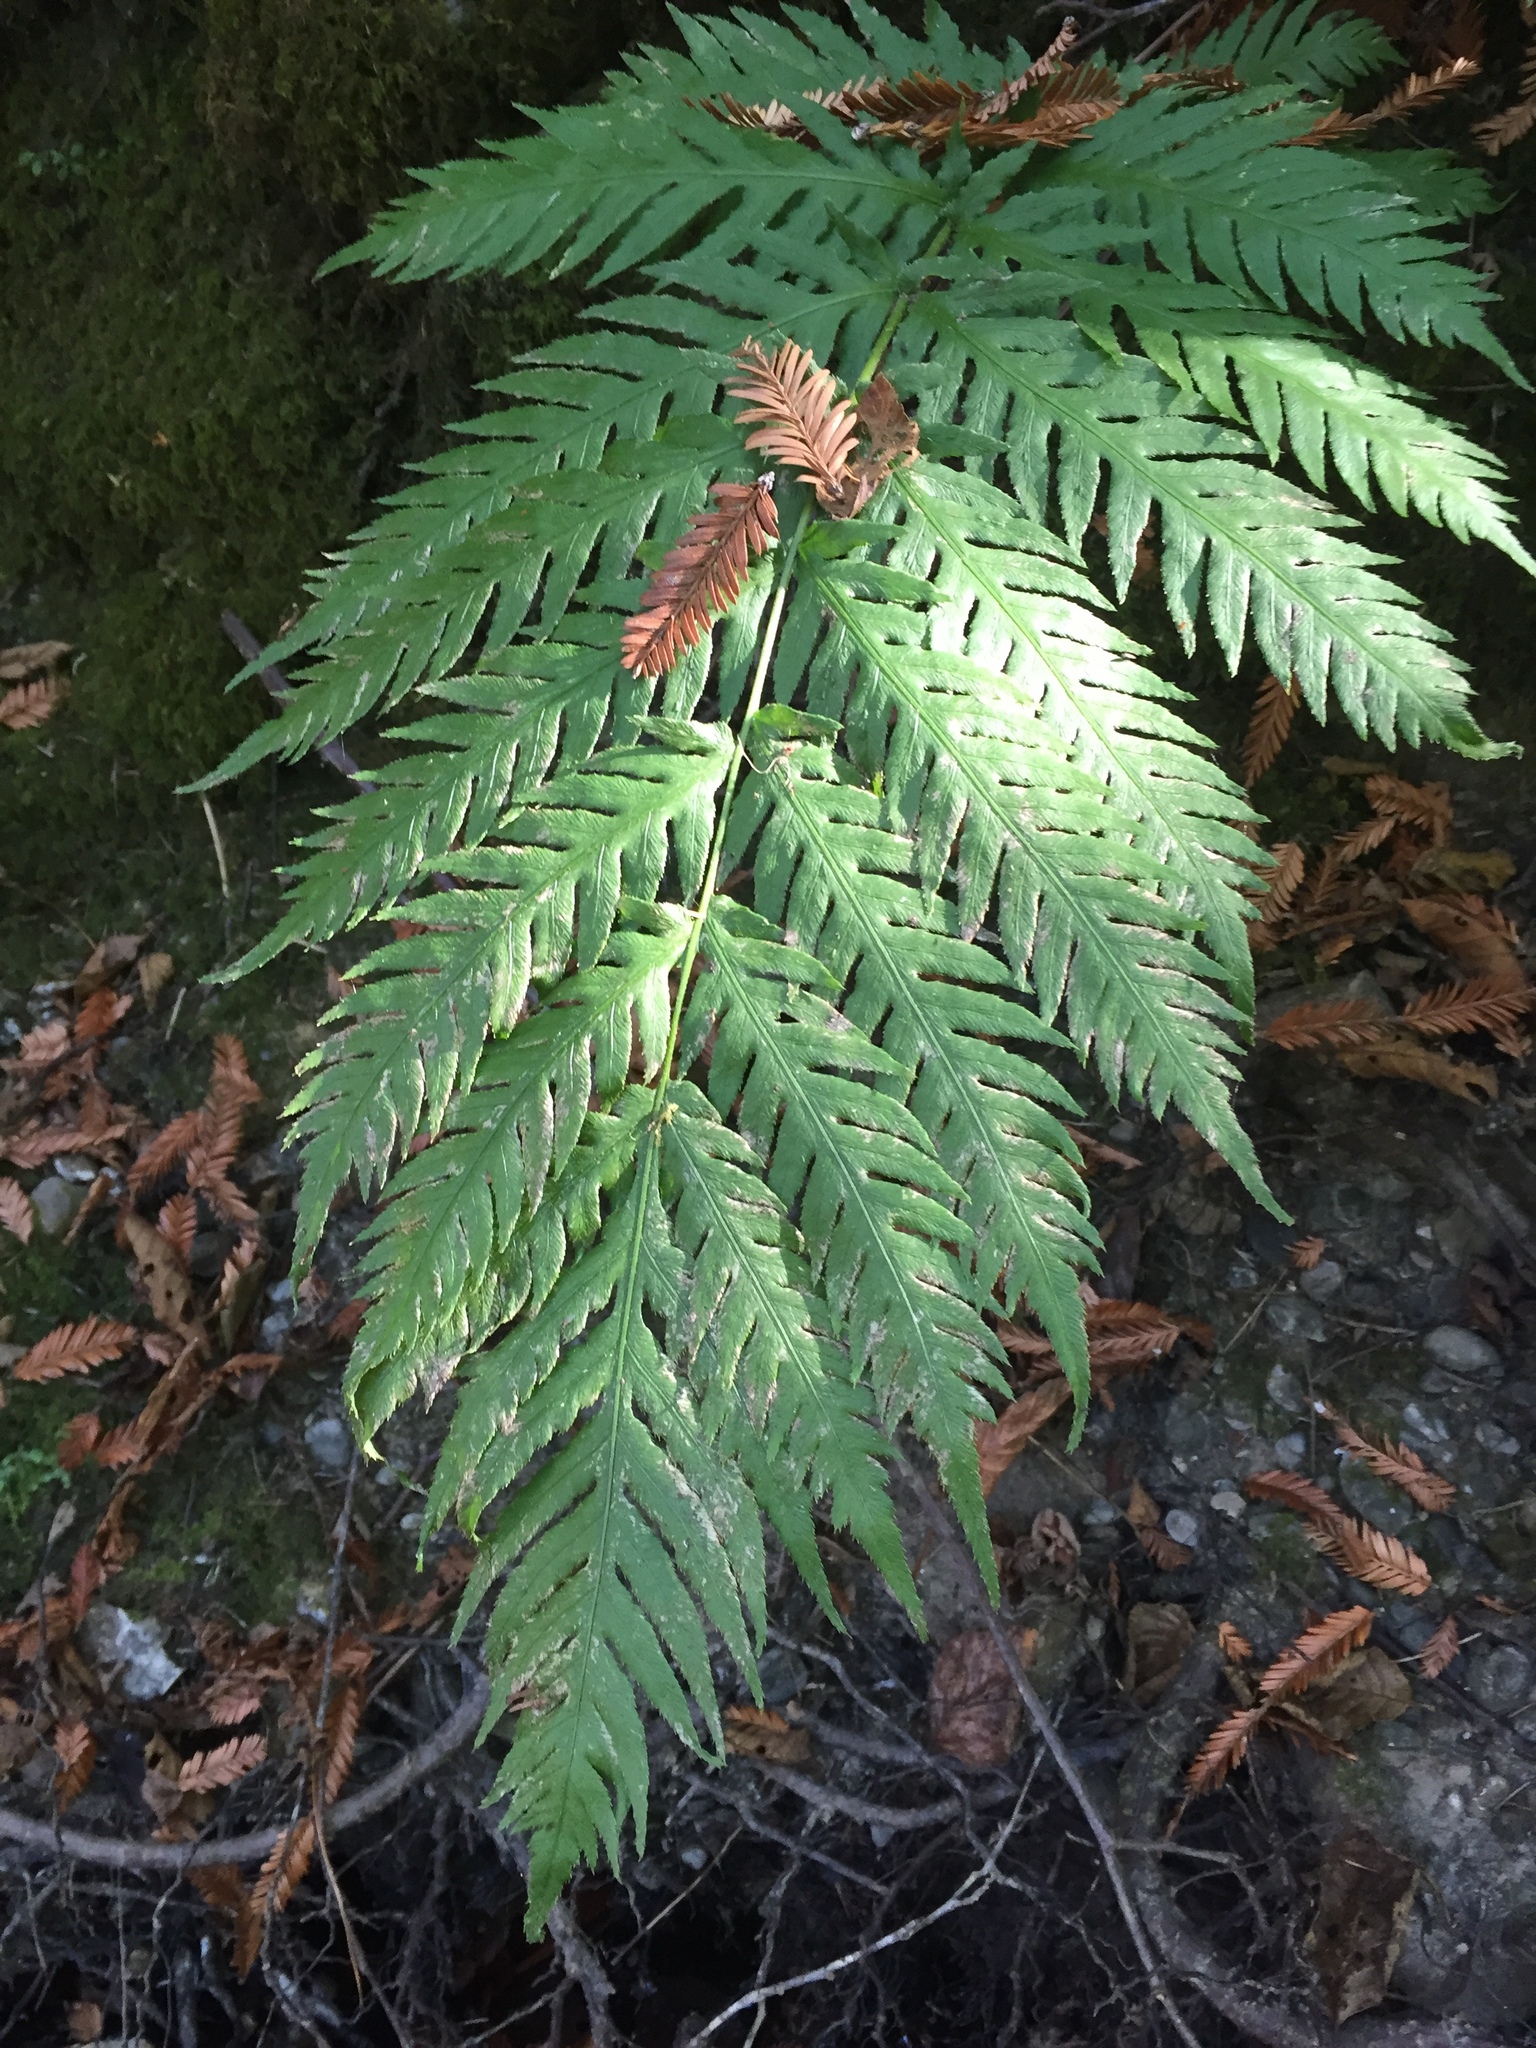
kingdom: Plantae
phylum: Tracheophyta
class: Polypodiopsida
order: Polypodiales
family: Blechnaceae
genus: Woodwardia
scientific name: Woodwardia fimbriata
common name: Giant chain fern
